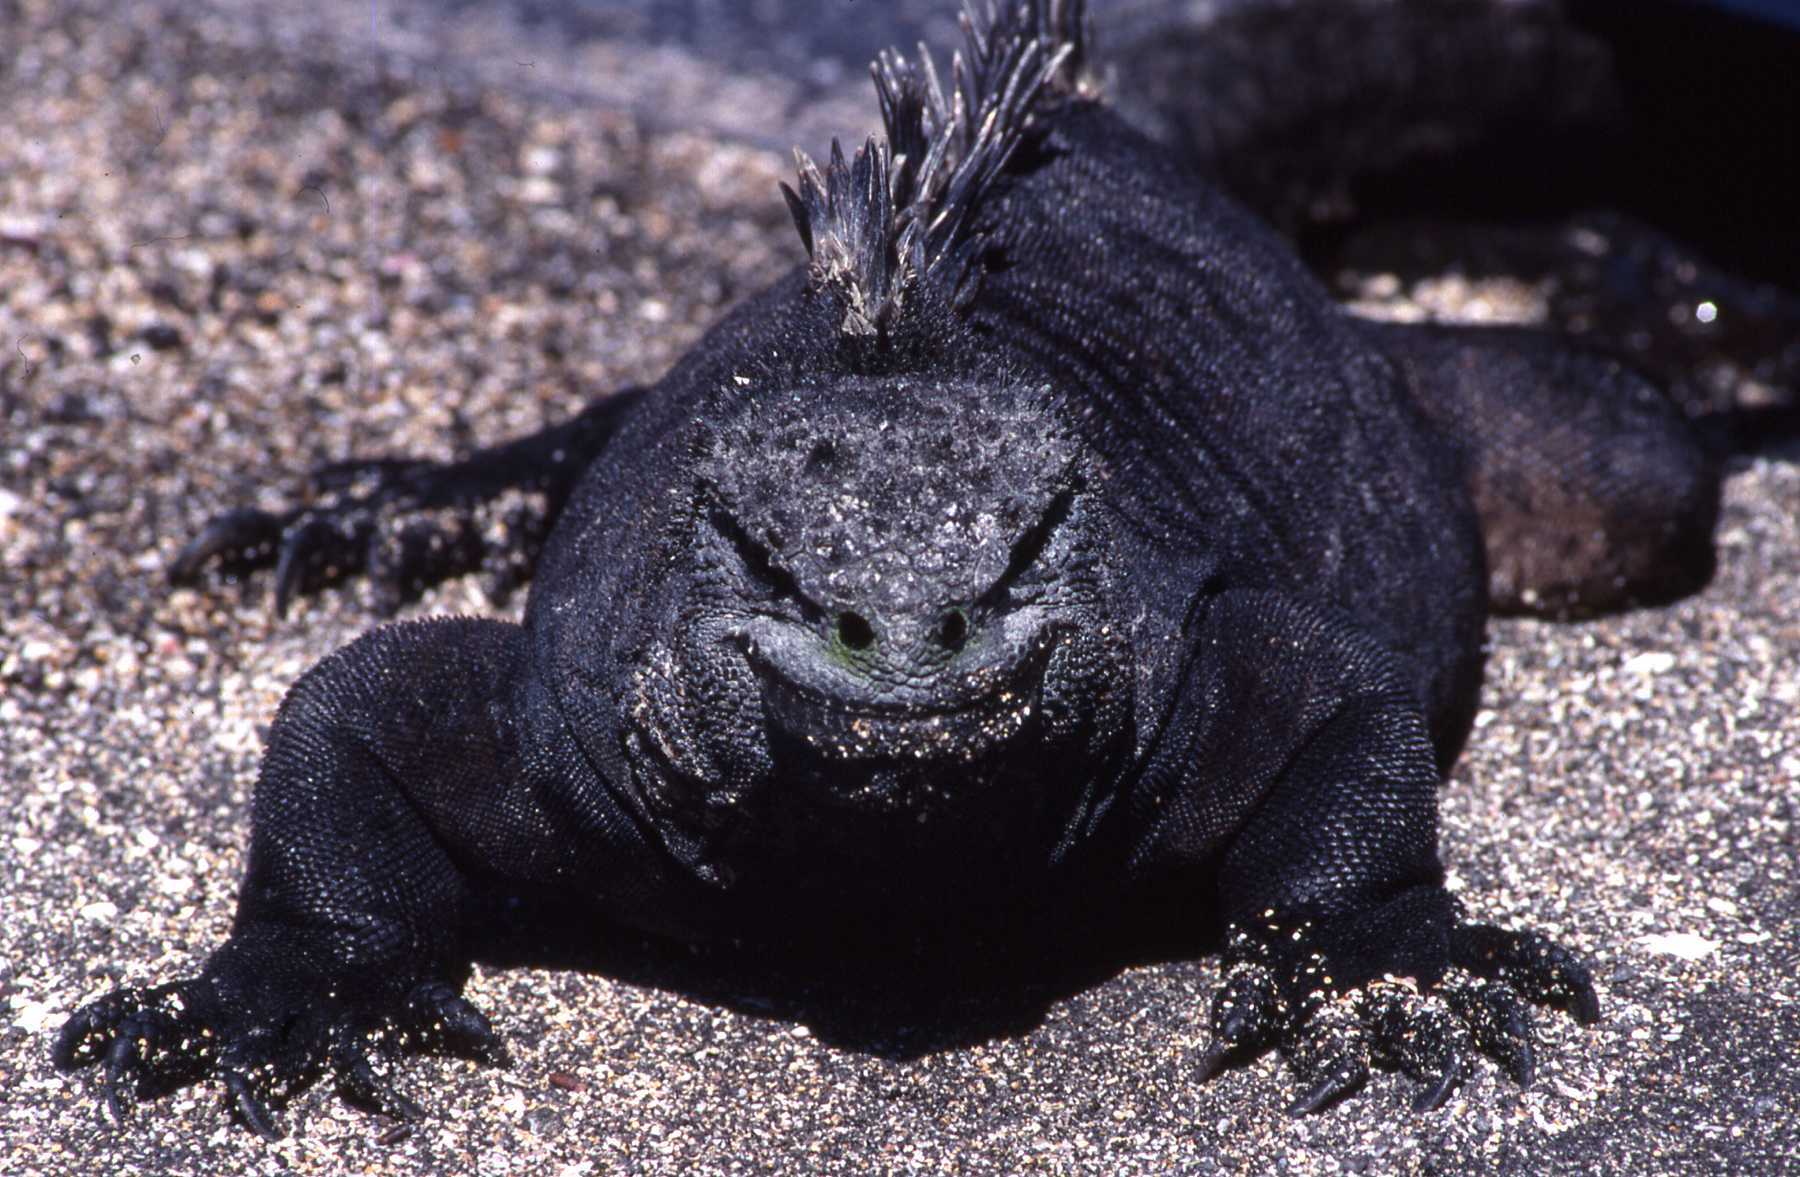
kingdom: Animalia
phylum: Chordata
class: Squamata
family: Iguanidae
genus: Amblyrhynchus
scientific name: Amblyrhynchus cristatus
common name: Marine iguana
